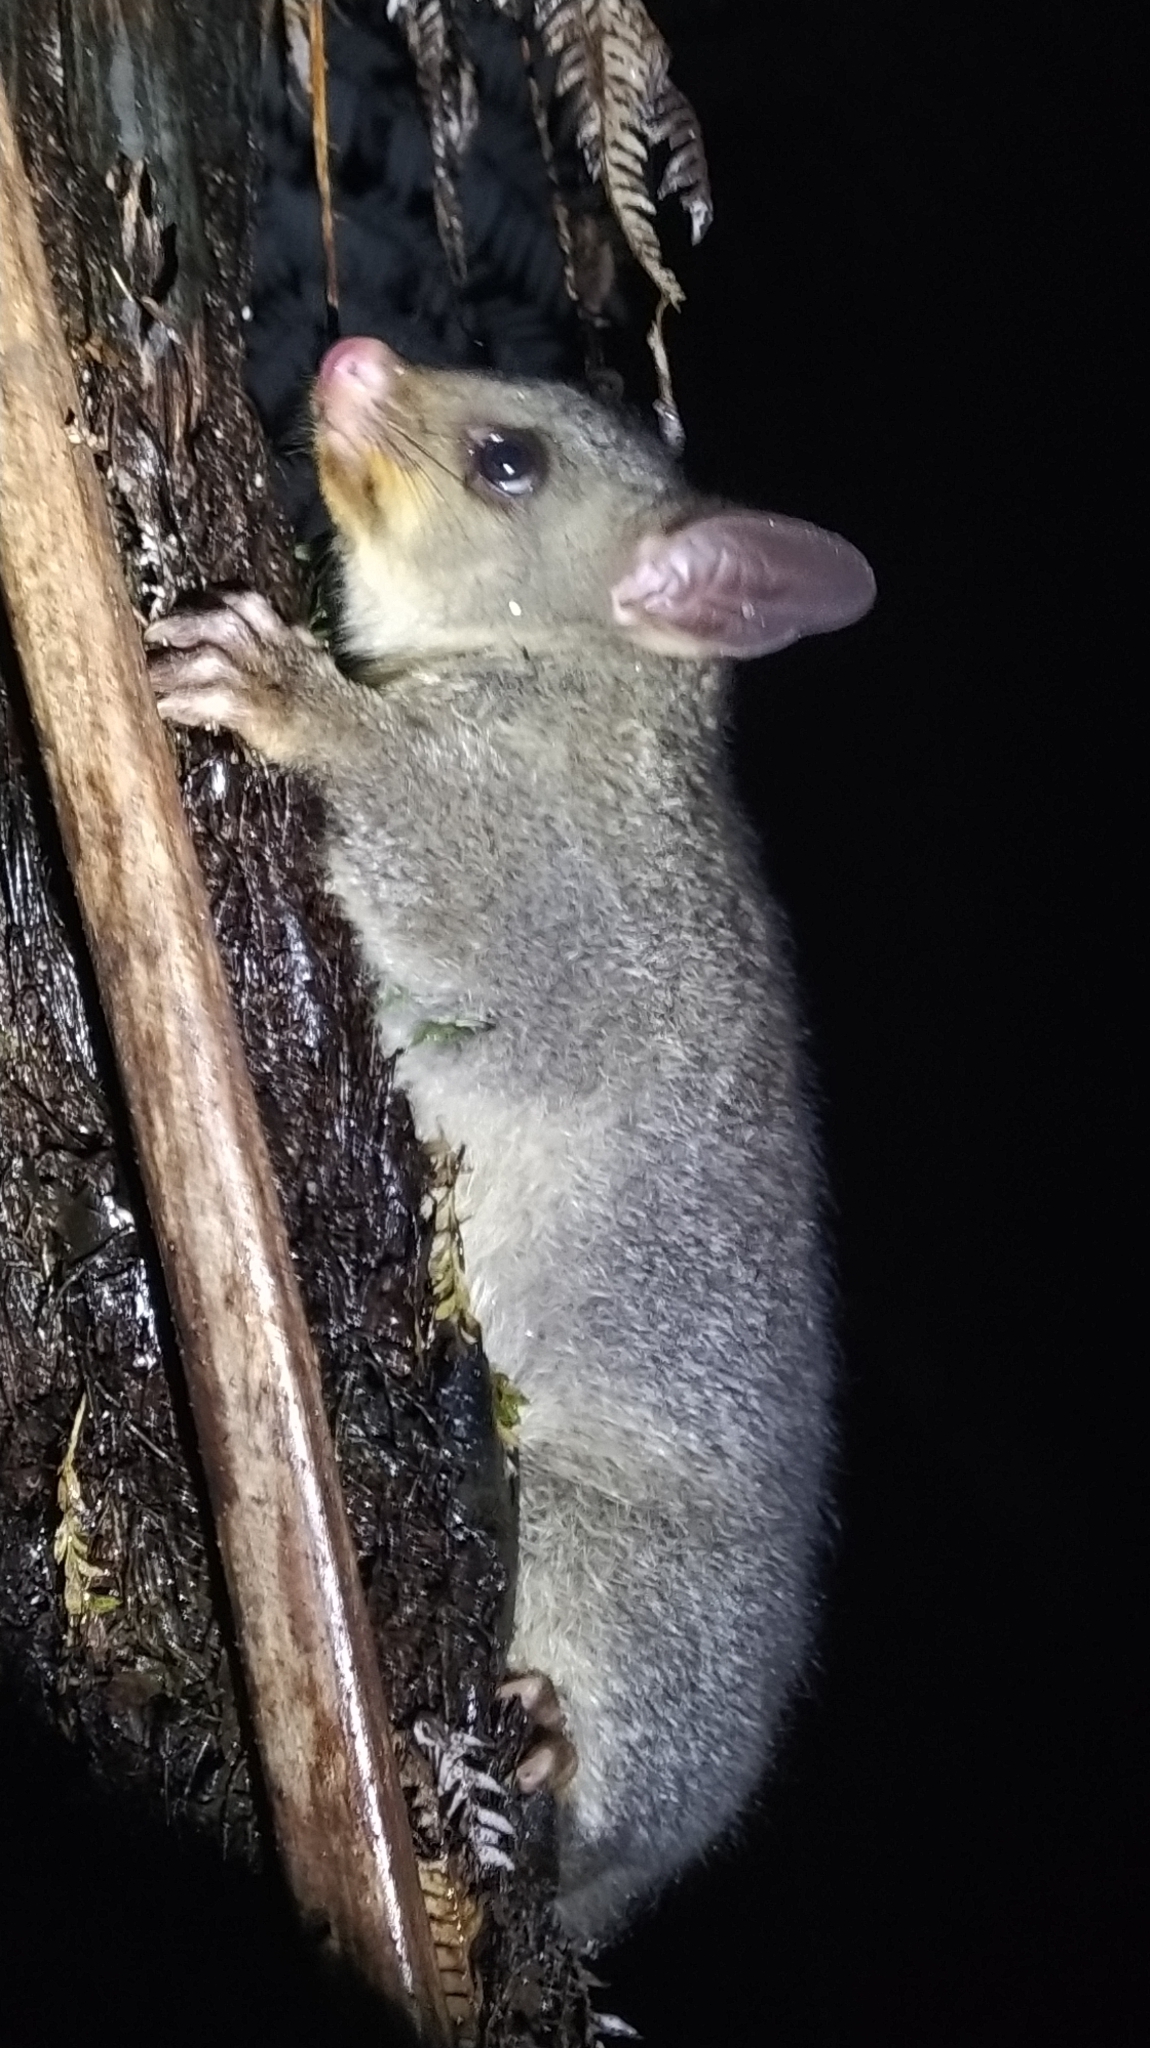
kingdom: Animalia
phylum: Chordata
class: Mammalia
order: Diprotodontia
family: Phalangeridae
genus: Trichosurus
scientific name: Trichosurus vulpecula
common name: Common brushtail
